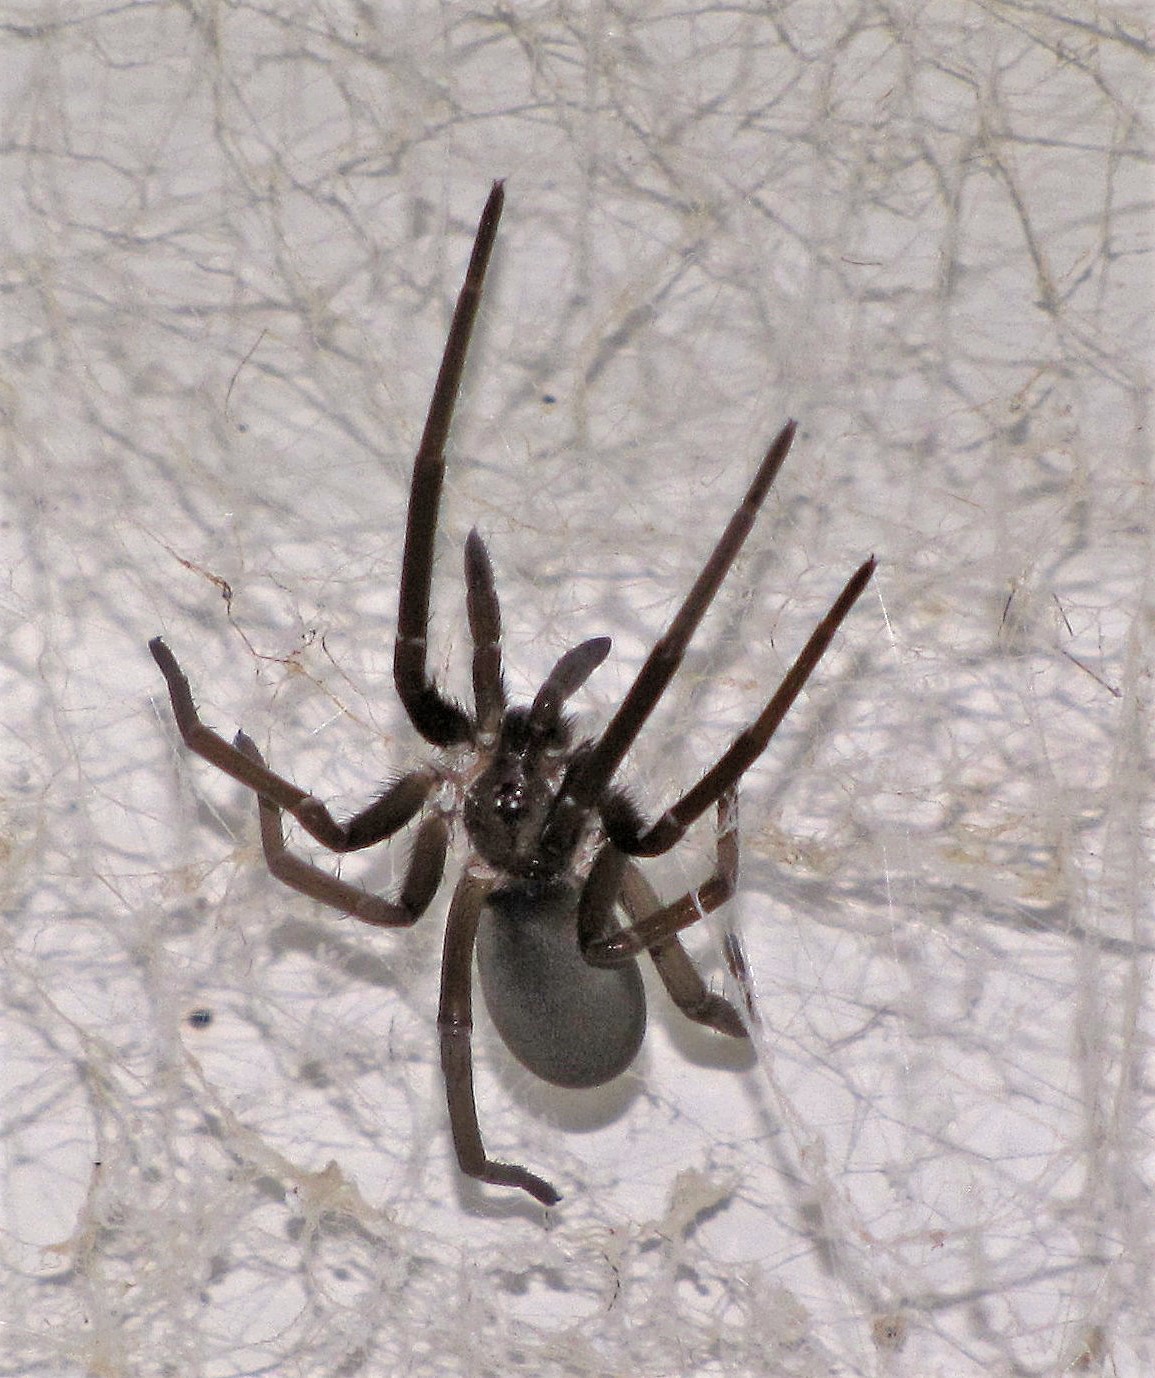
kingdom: Animalia
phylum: Arthropoda
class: Arachnida
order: Araneae
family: Filistatidae
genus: Kukulcania
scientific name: Kukulcania hibernalis
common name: Crevice weaver
